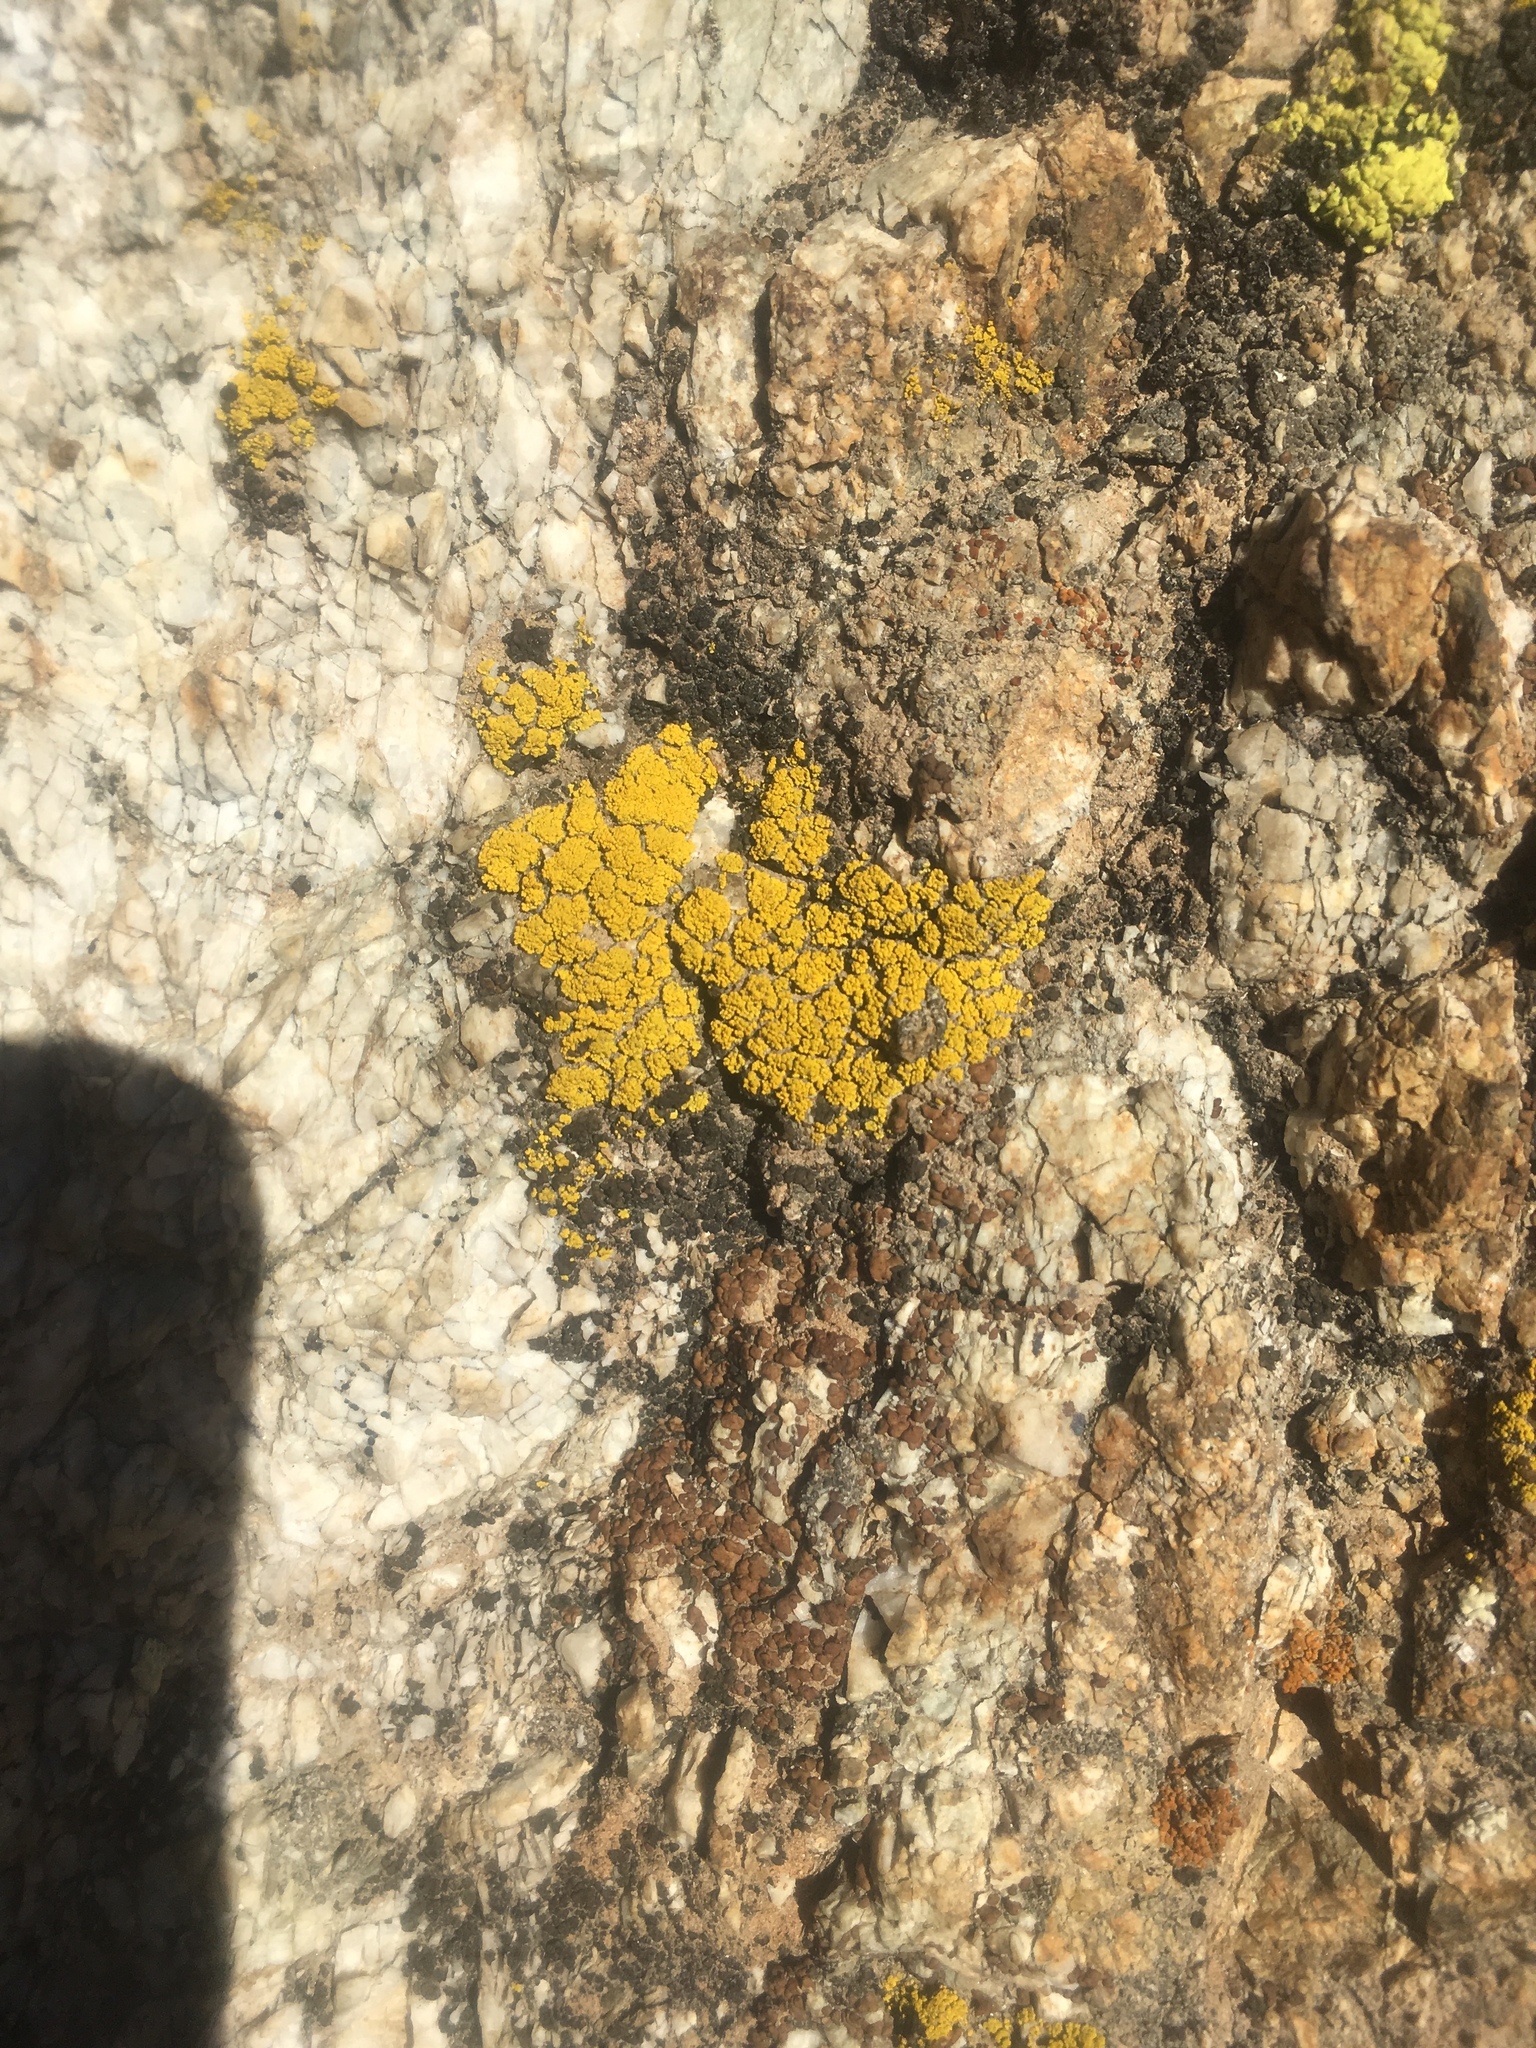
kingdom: Fungi
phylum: Ascomycota
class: Candelariomycetes
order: Candelariales
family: Candelariaceae
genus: Candelariella
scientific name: Candelariella rosulans
